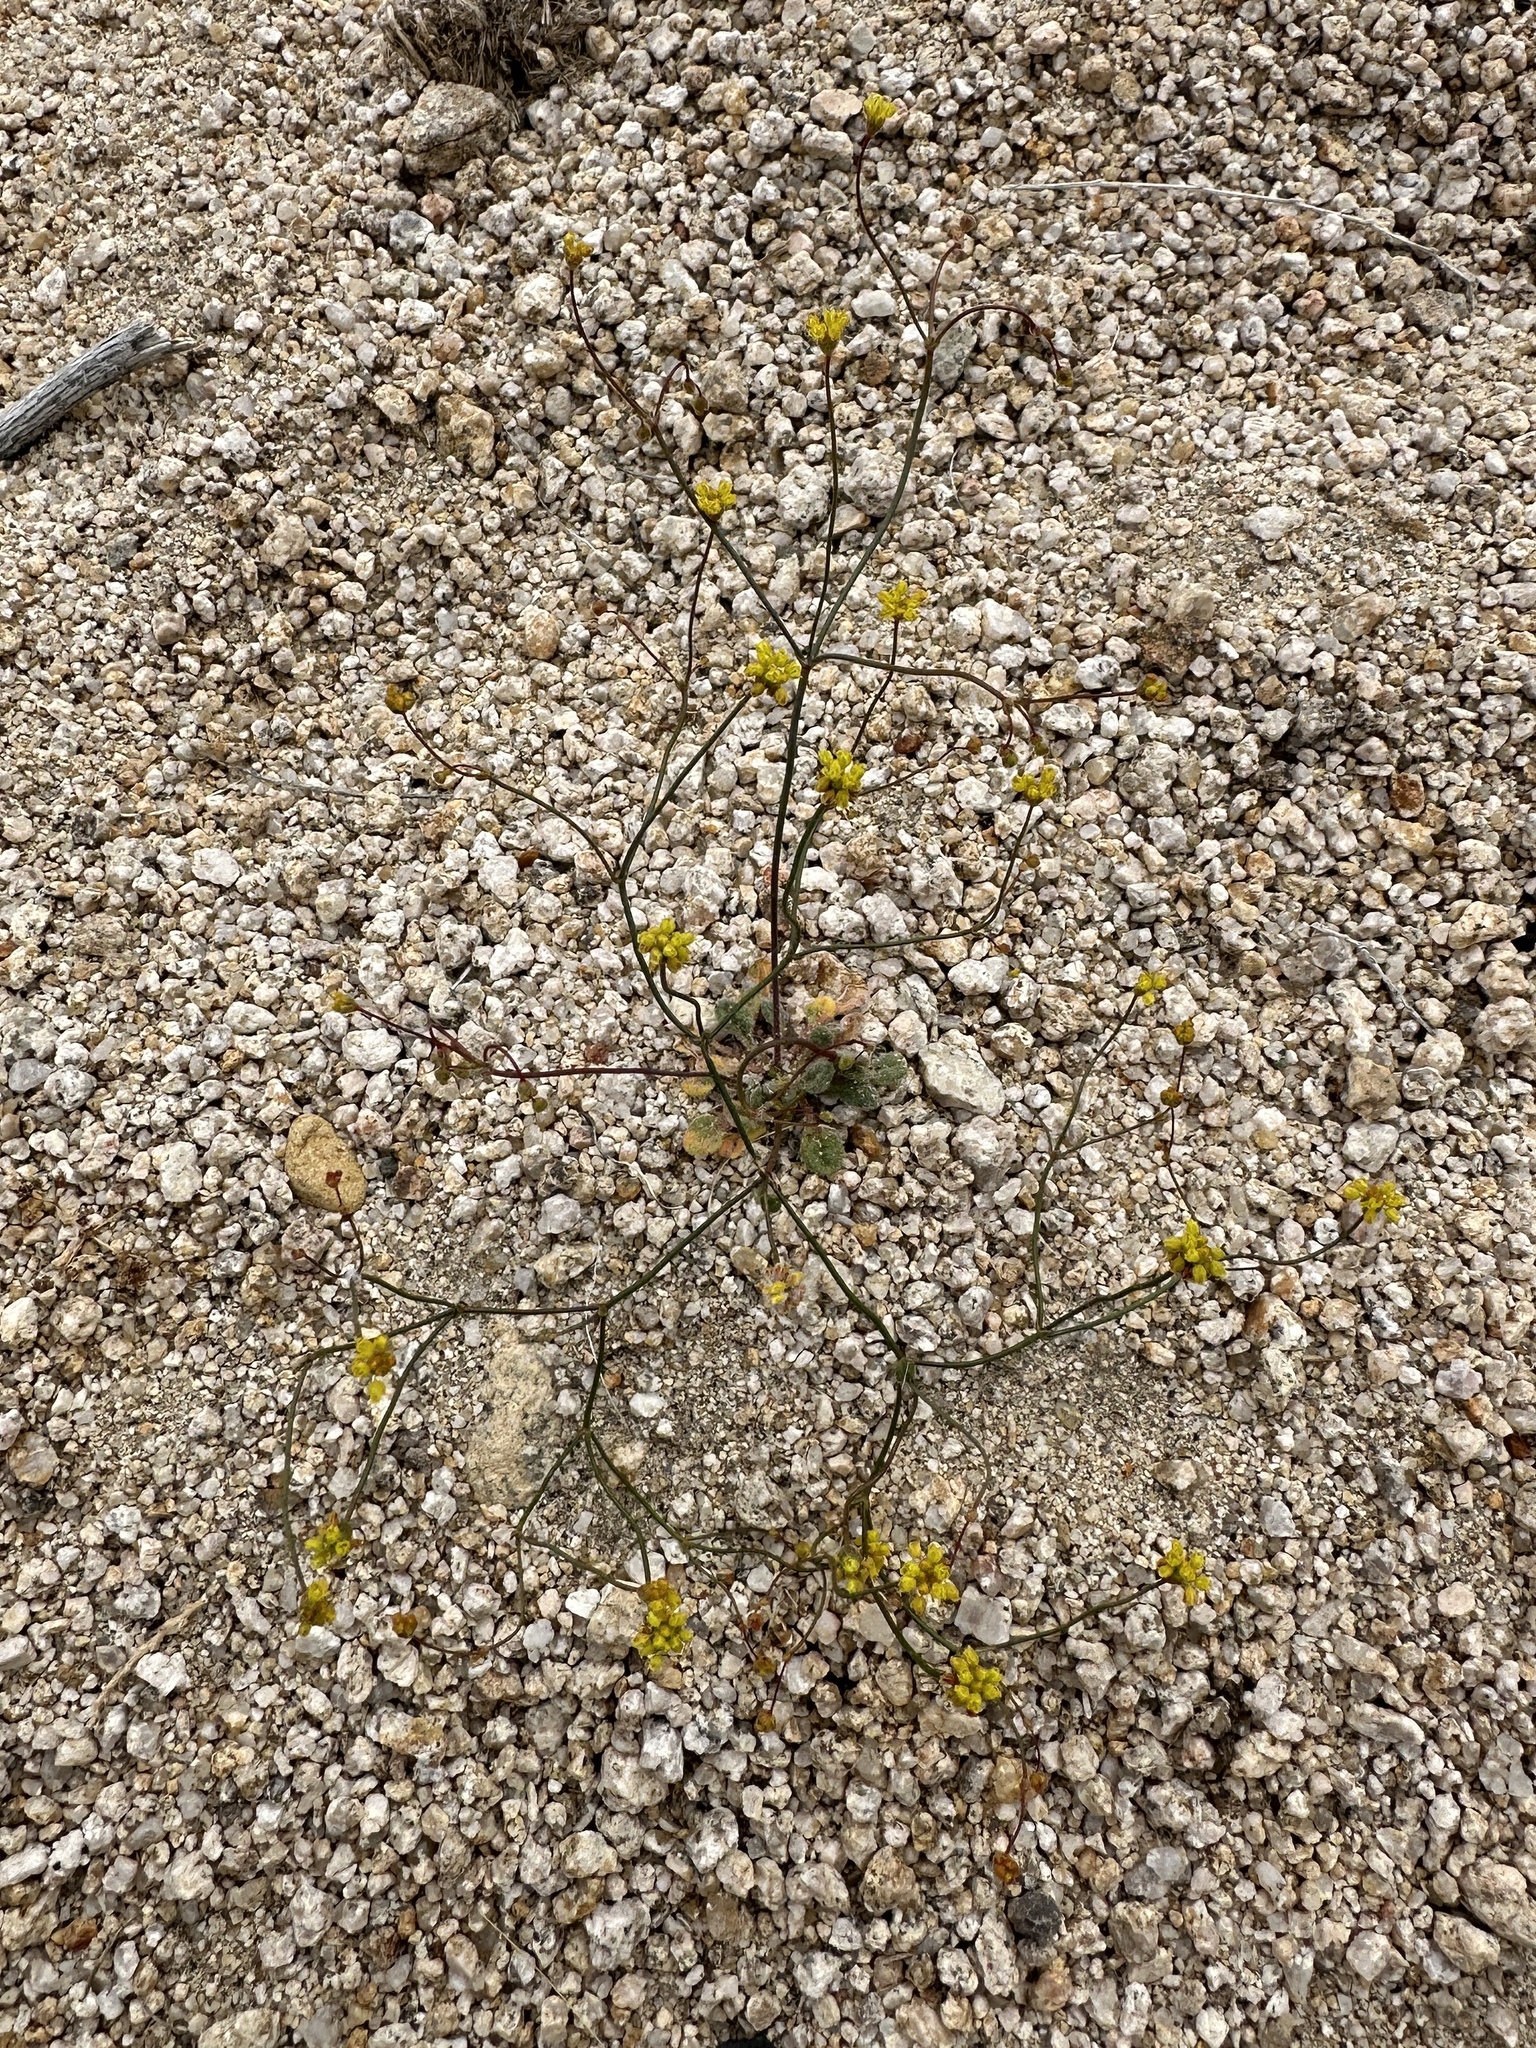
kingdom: Plantae
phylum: Tracheophyta
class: Magnoliopsida
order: Caryophyllales
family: Polygonaceae
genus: Eriogonum
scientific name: Eriogonum pusillum
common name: Yellow turbans
